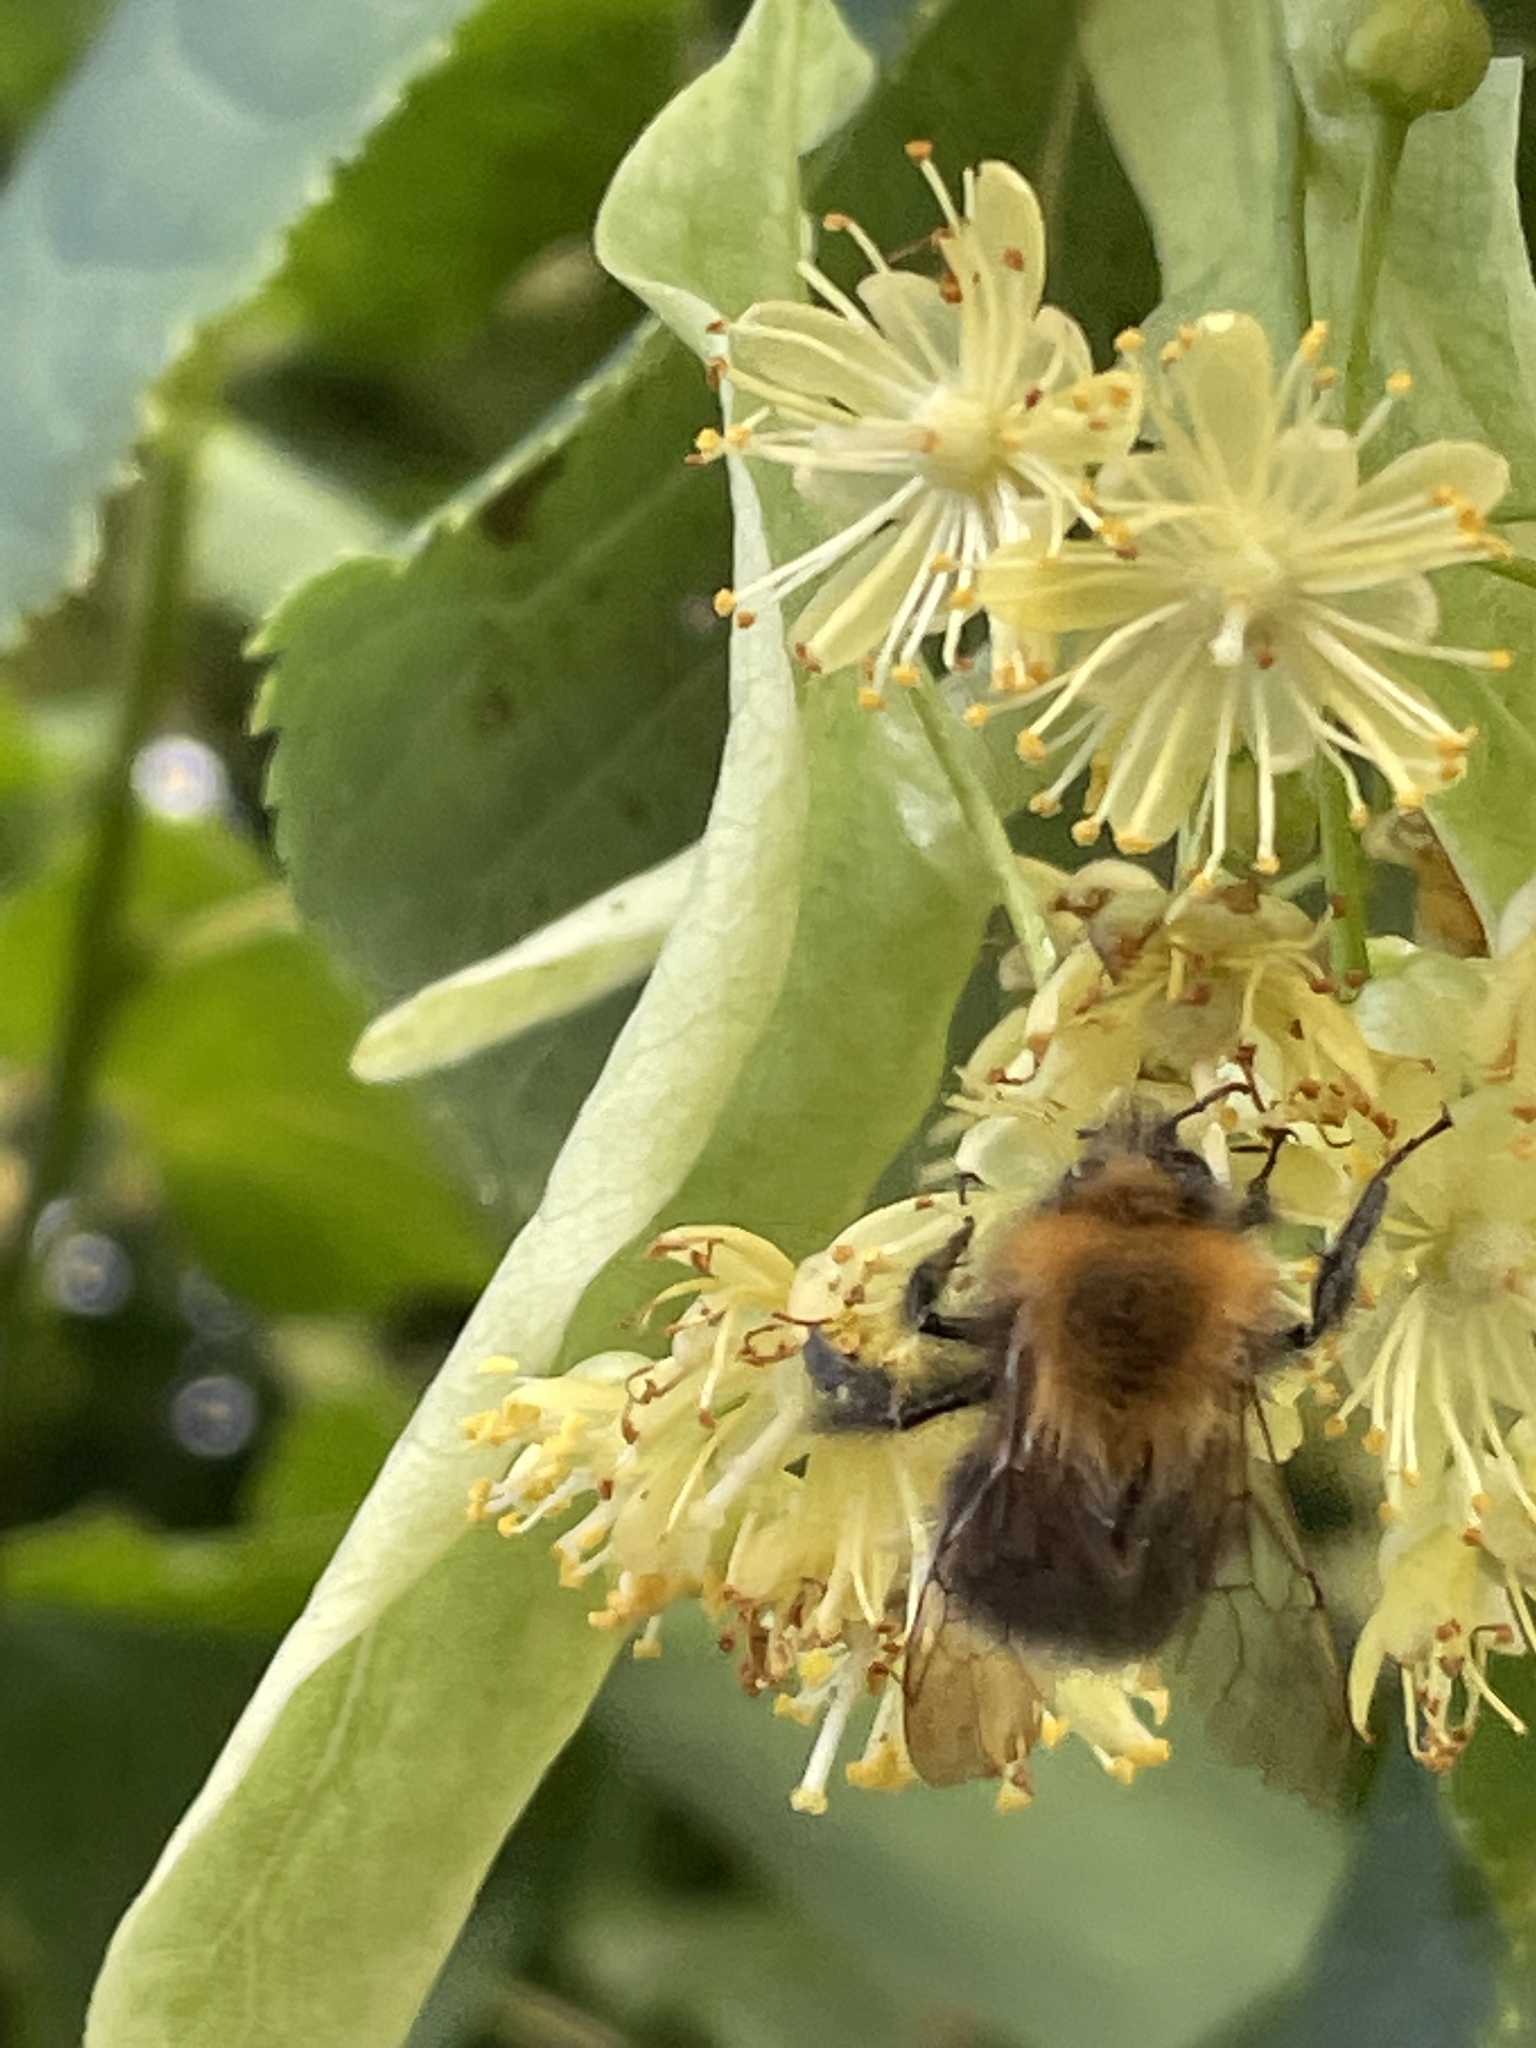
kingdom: Animalia
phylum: Arthropoda
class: Insecta
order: Hymenoptera
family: Apidae
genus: Bombus
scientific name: Bombus hypnorum
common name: New garden bumblebee
